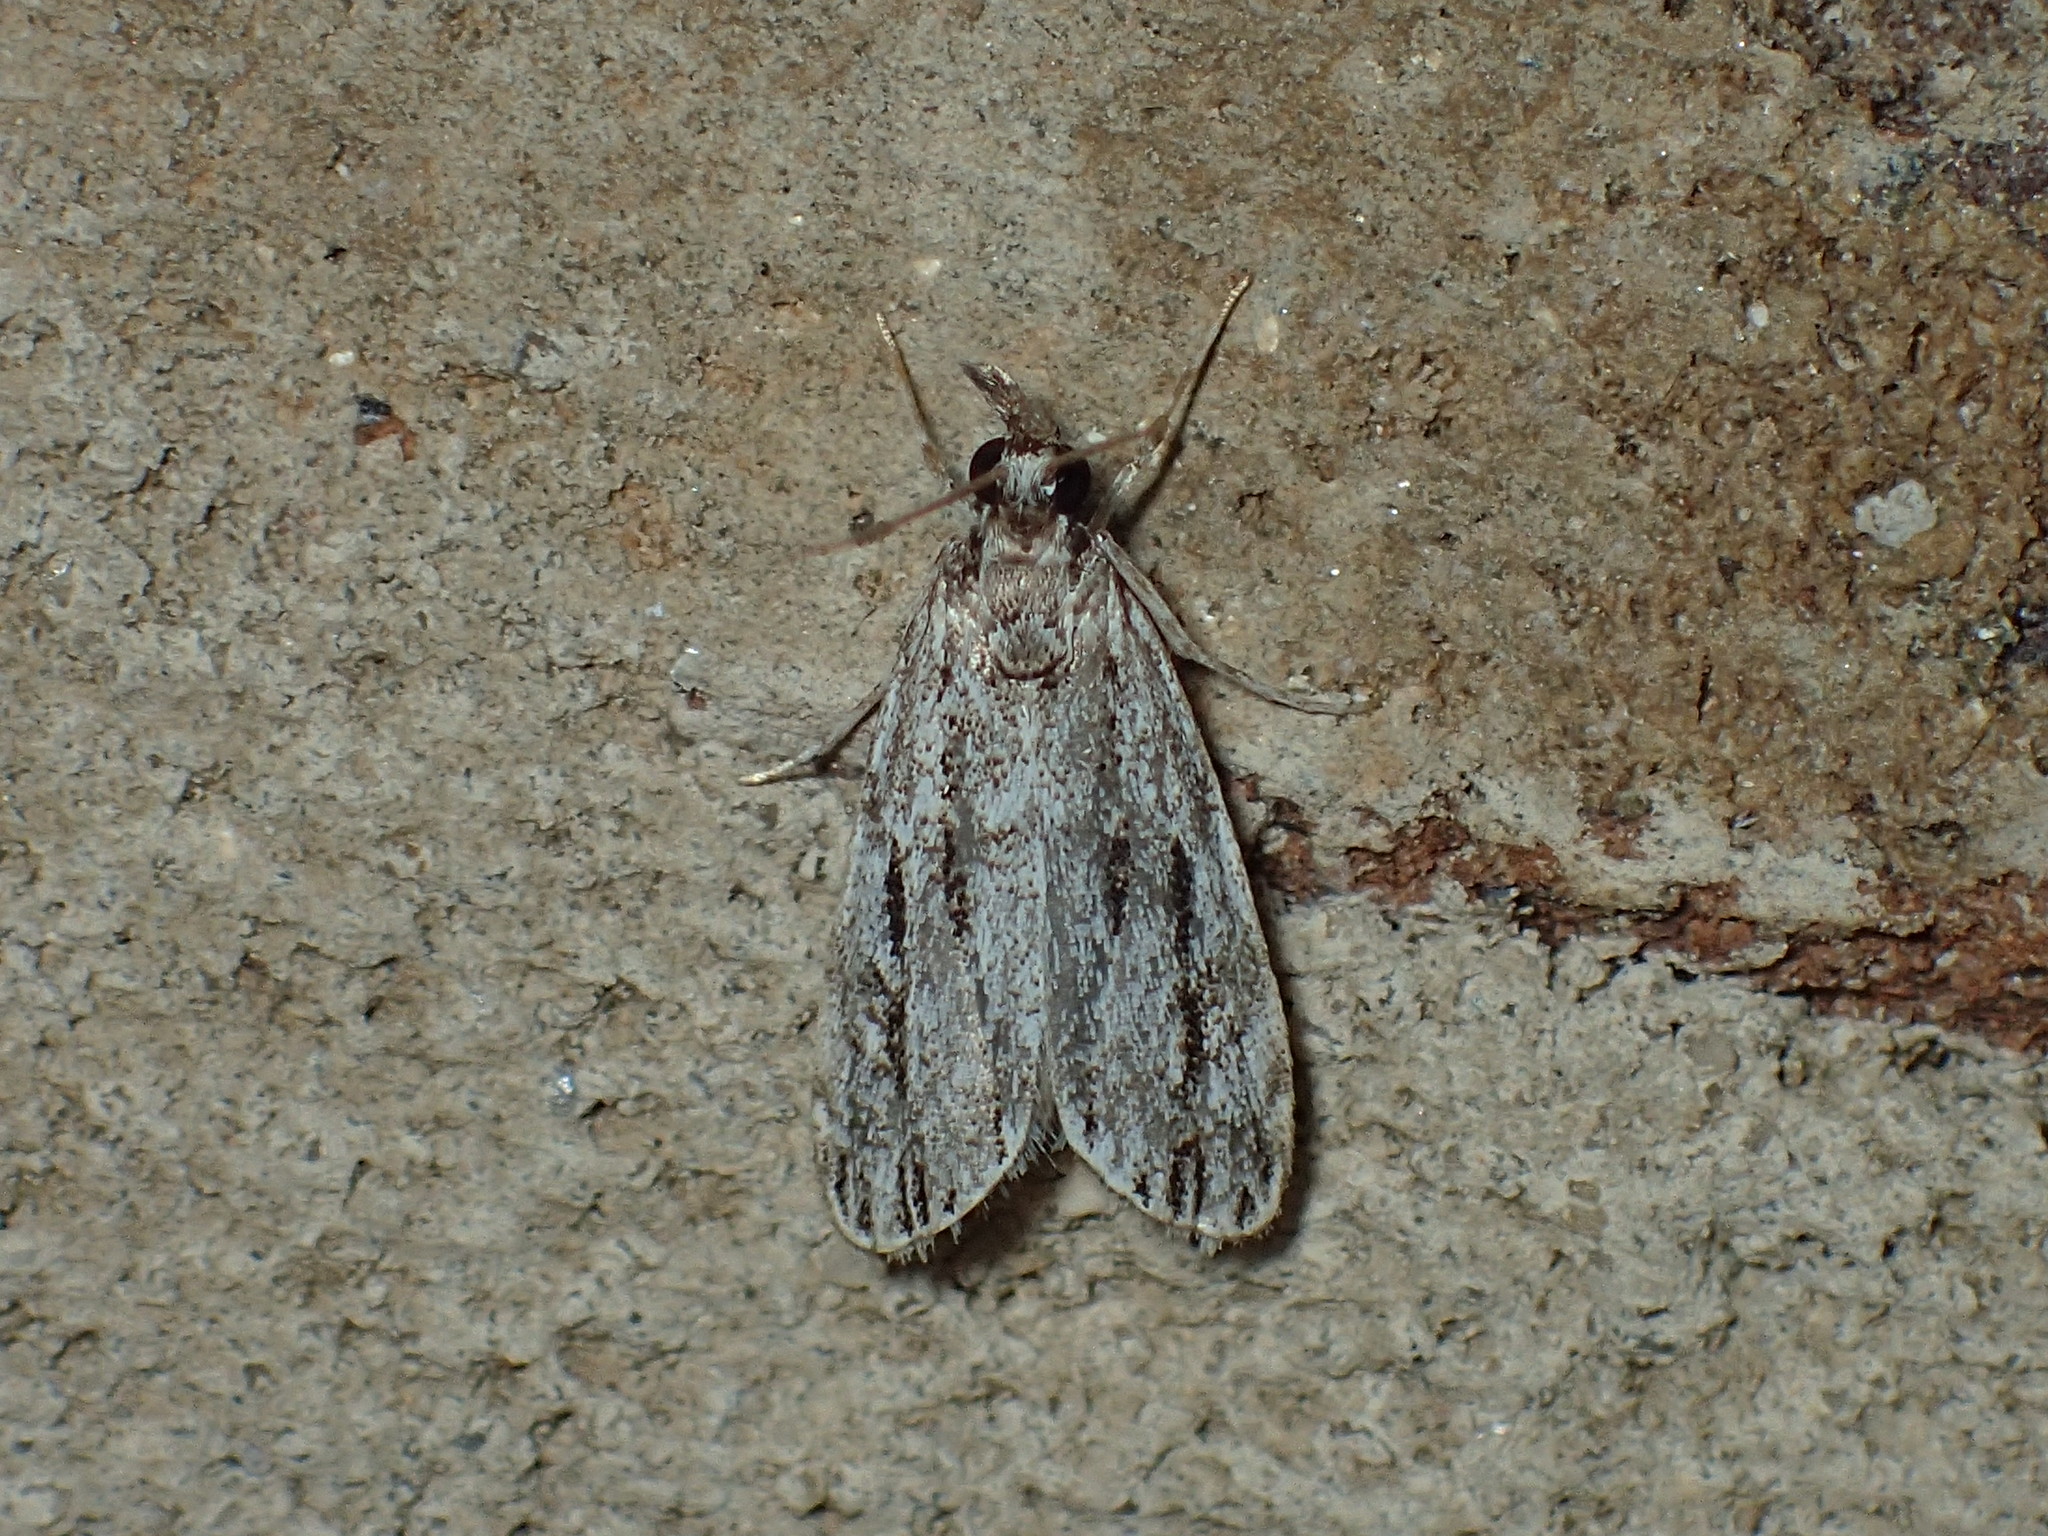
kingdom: Animalia
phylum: Arthropoda
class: Insecta
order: Lepidoptera
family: Crambidae
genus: Eudonia
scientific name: Eudonia strigalis
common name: Striped eudonia moth
